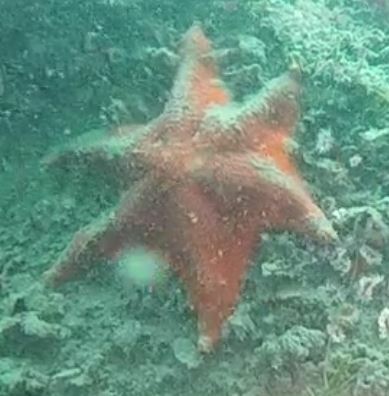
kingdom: Animalia
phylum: Echinodermata
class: Asteroidea
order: Valvatida
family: Asterinidae
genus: Patiria
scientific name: Patiria miniata
